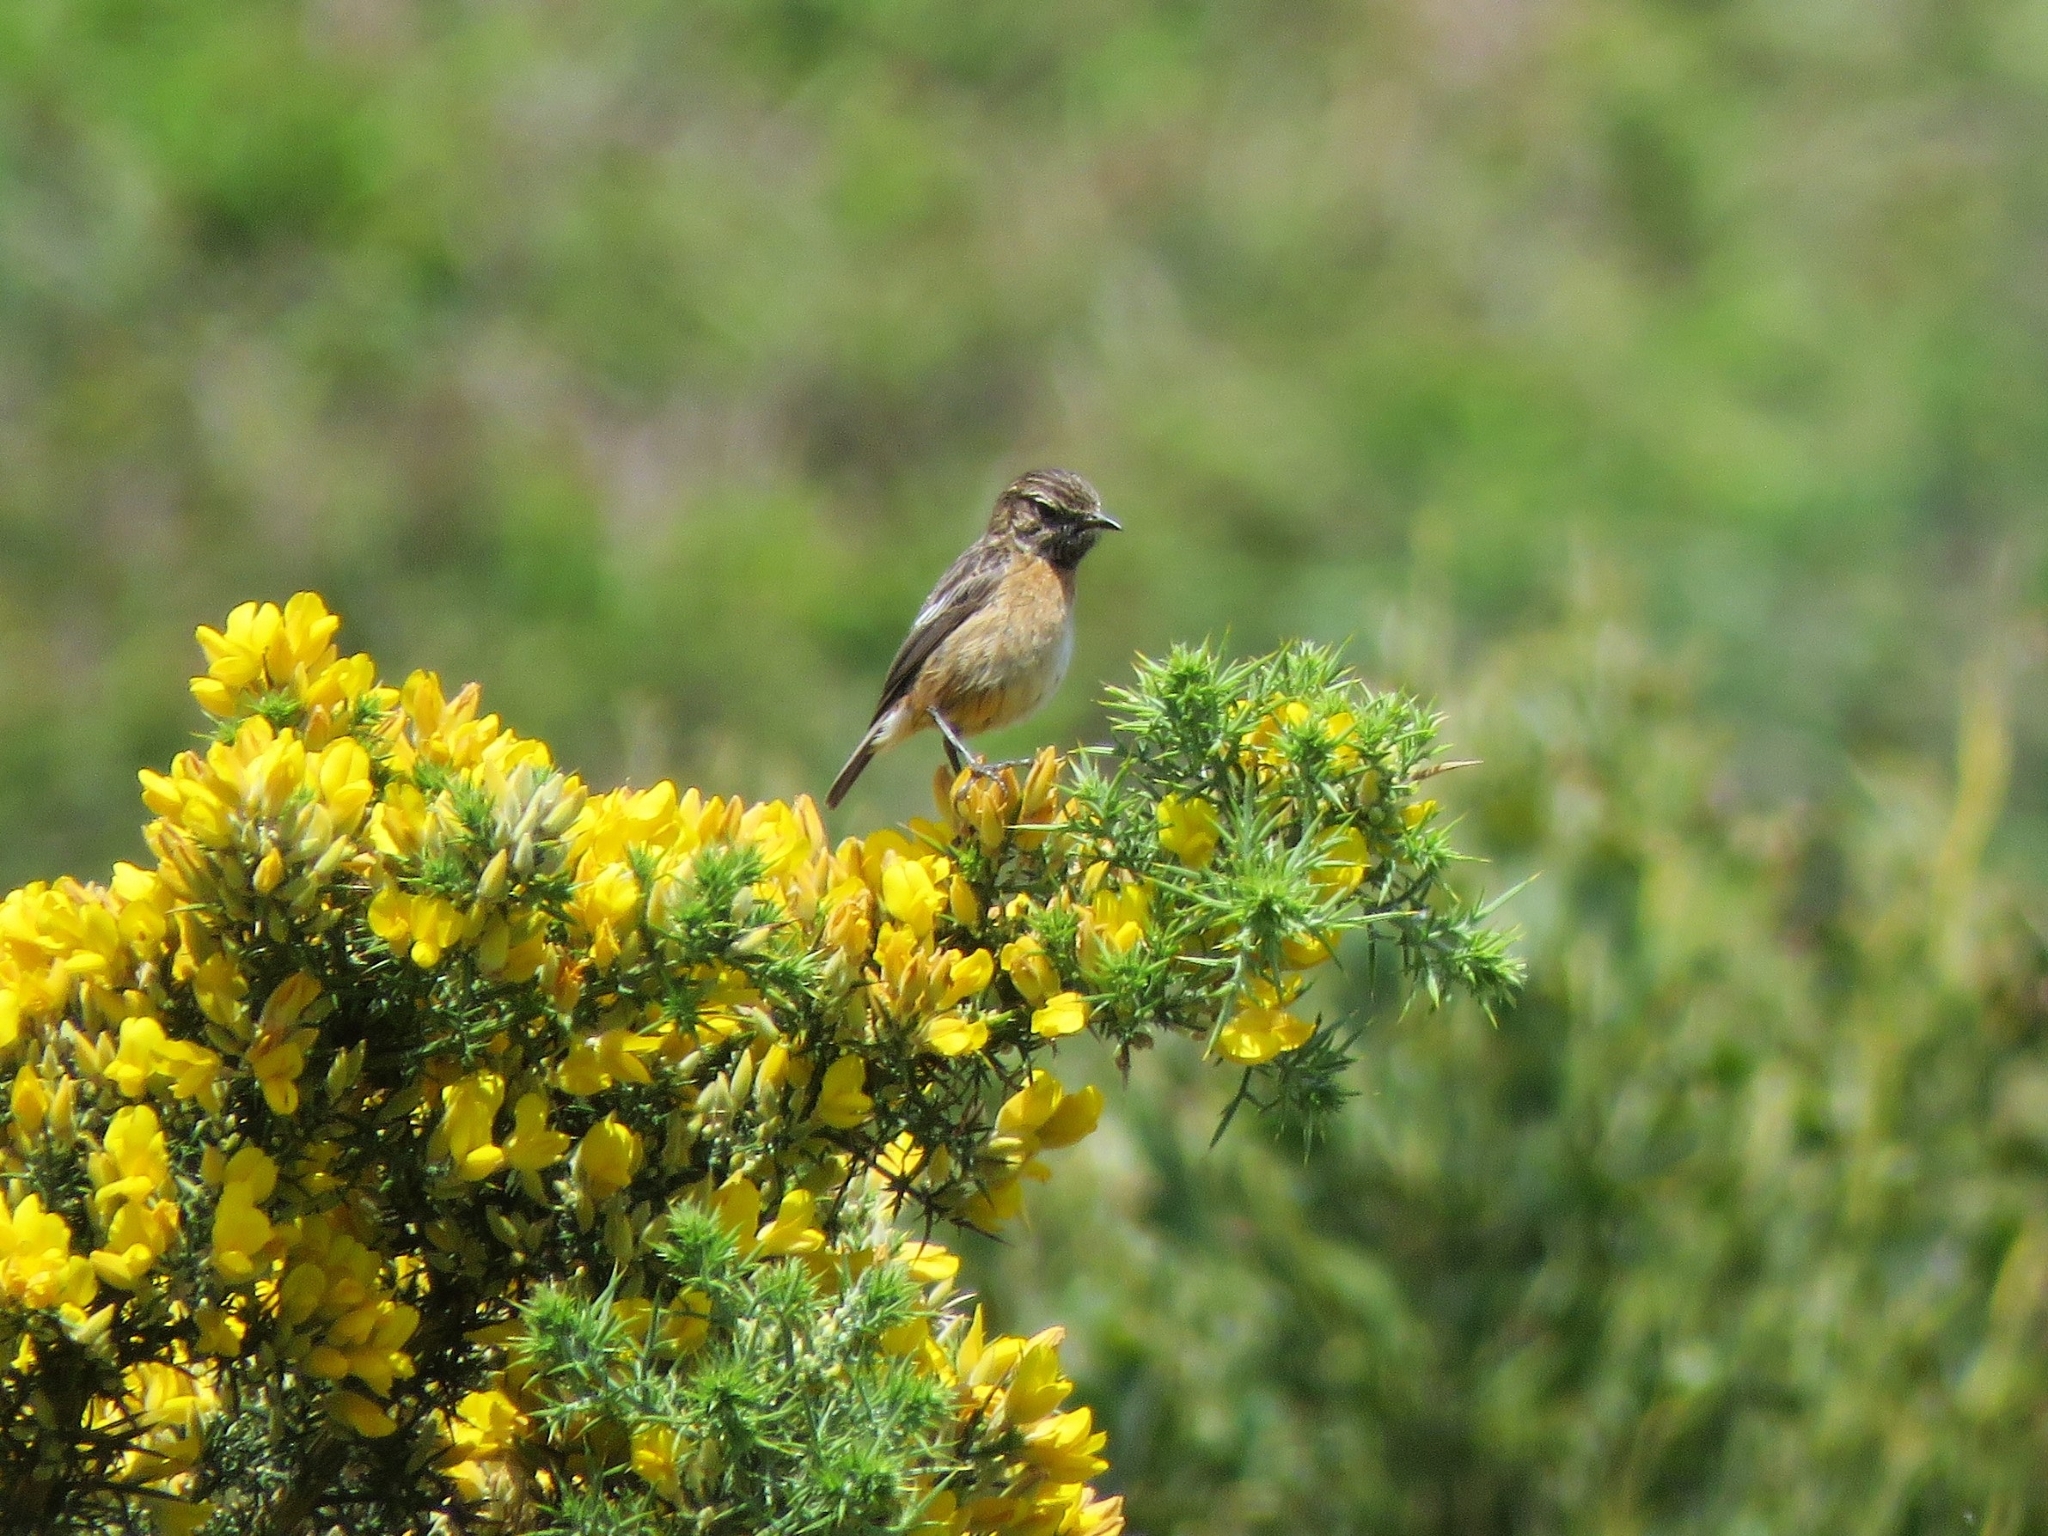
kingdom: Animalia
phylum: Chordata
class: Aves
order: Passeriformes
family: Muscicapidae
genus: Saxicola
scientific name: Saxicola rubicola
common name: European stonechat
